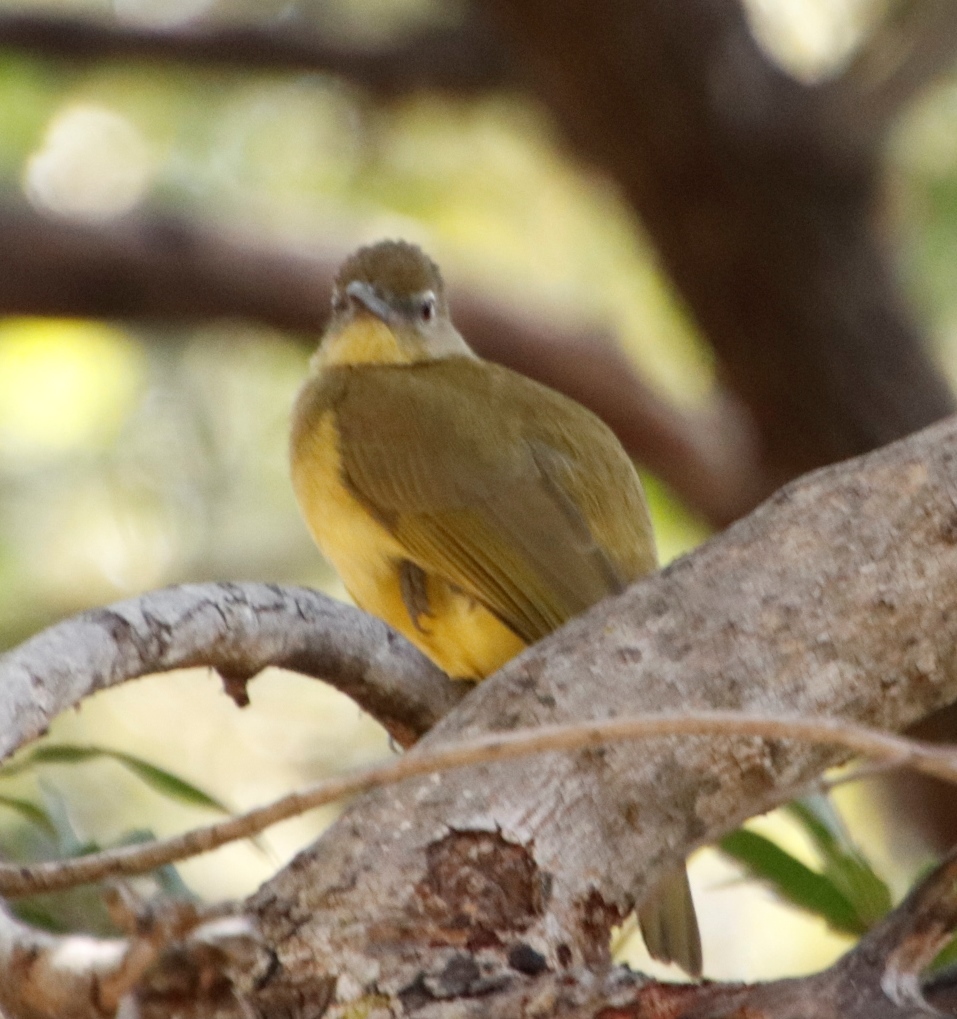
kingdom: Animalia
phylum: Chordata
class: Aves
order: Passeriformes
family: Pycnonotidae
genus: Chlorocichla
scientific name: Chlorocichla flaviventris
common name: Yellow-bellied greenbul
